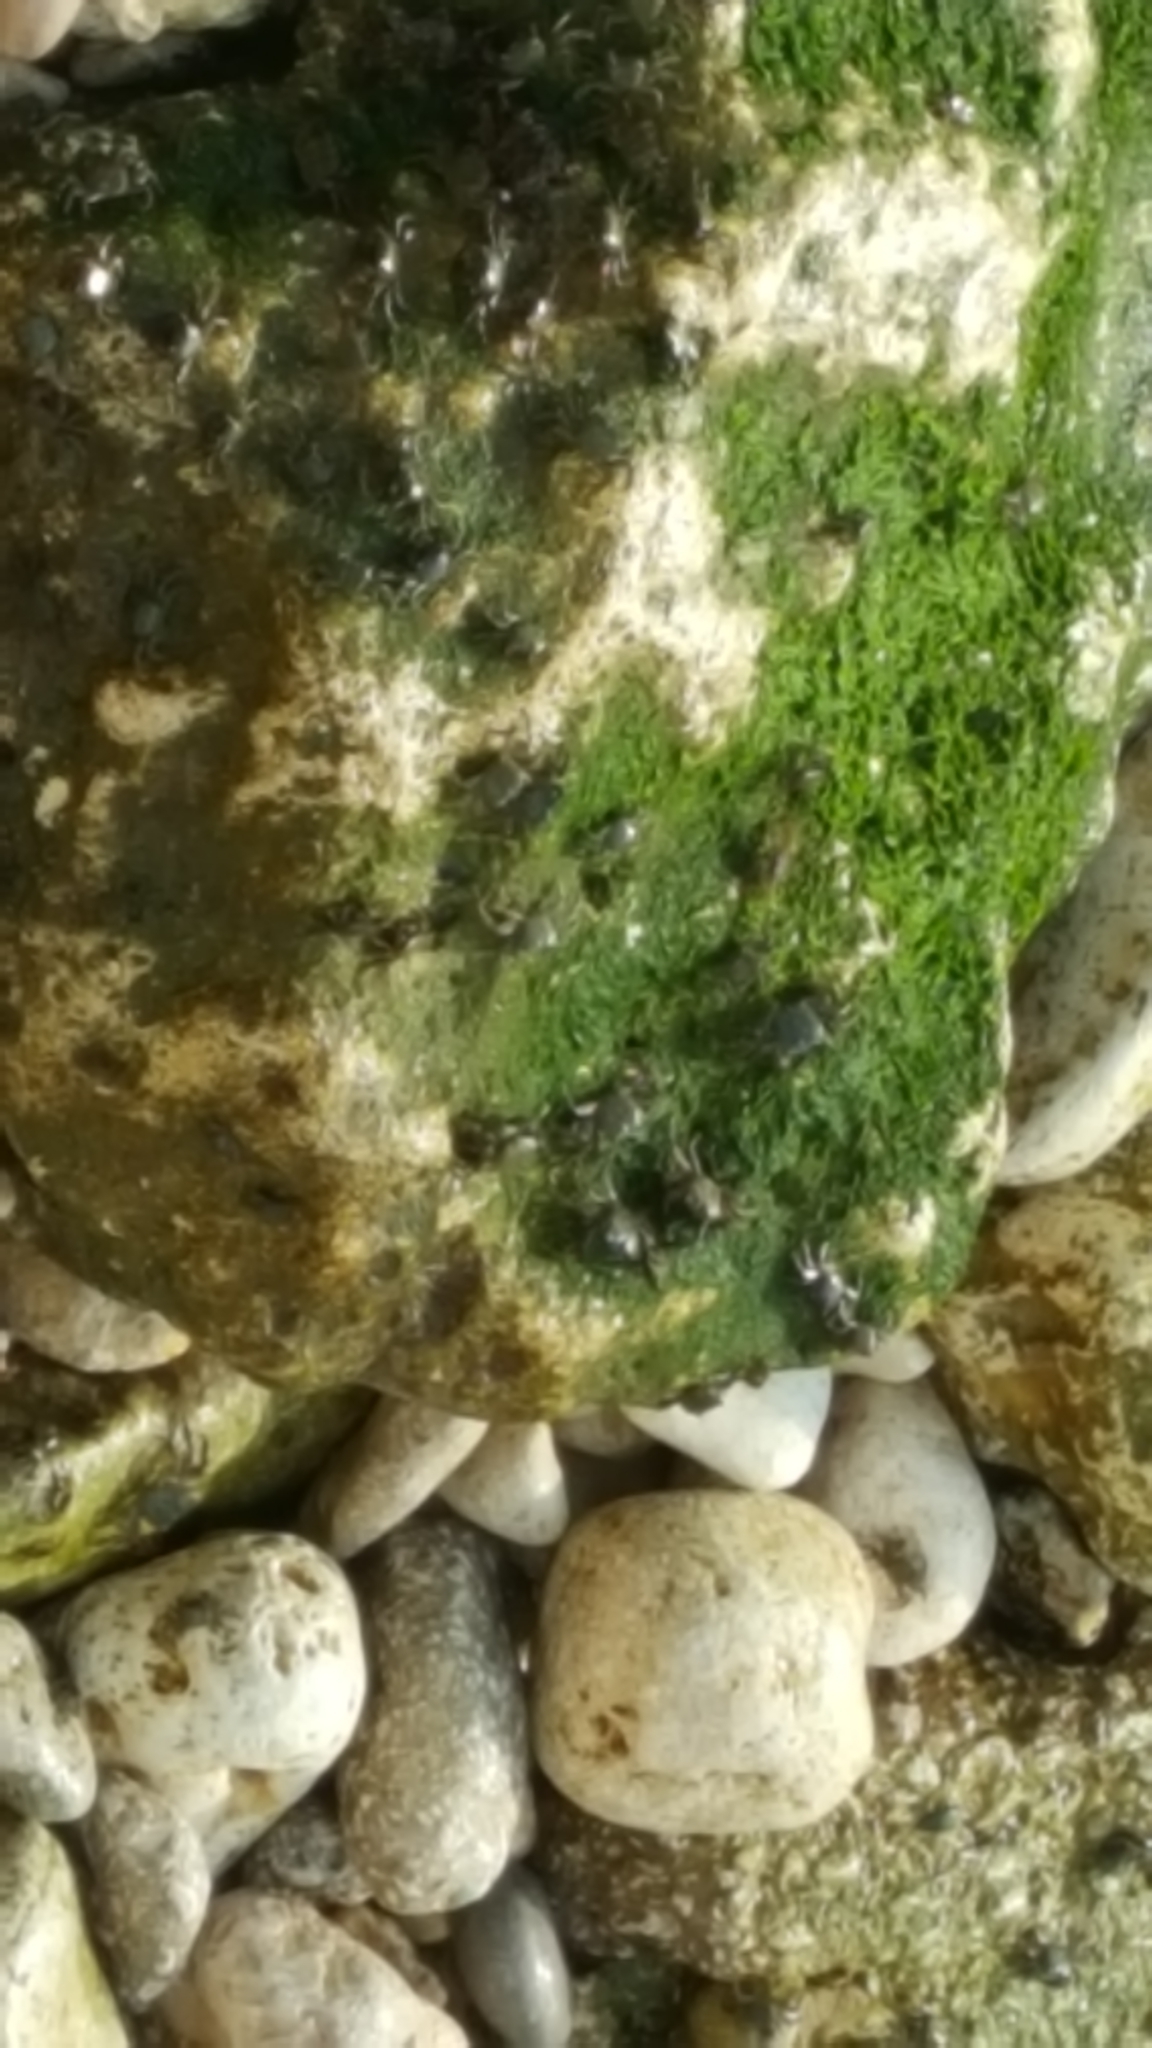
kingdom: Animalia
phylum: Arthropoda
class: Malacostraca
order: Decapoda
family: Grapsidae
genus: Pachygrapsus
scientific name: Pachygrapsus marmoratus
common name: Marbled rock crab
